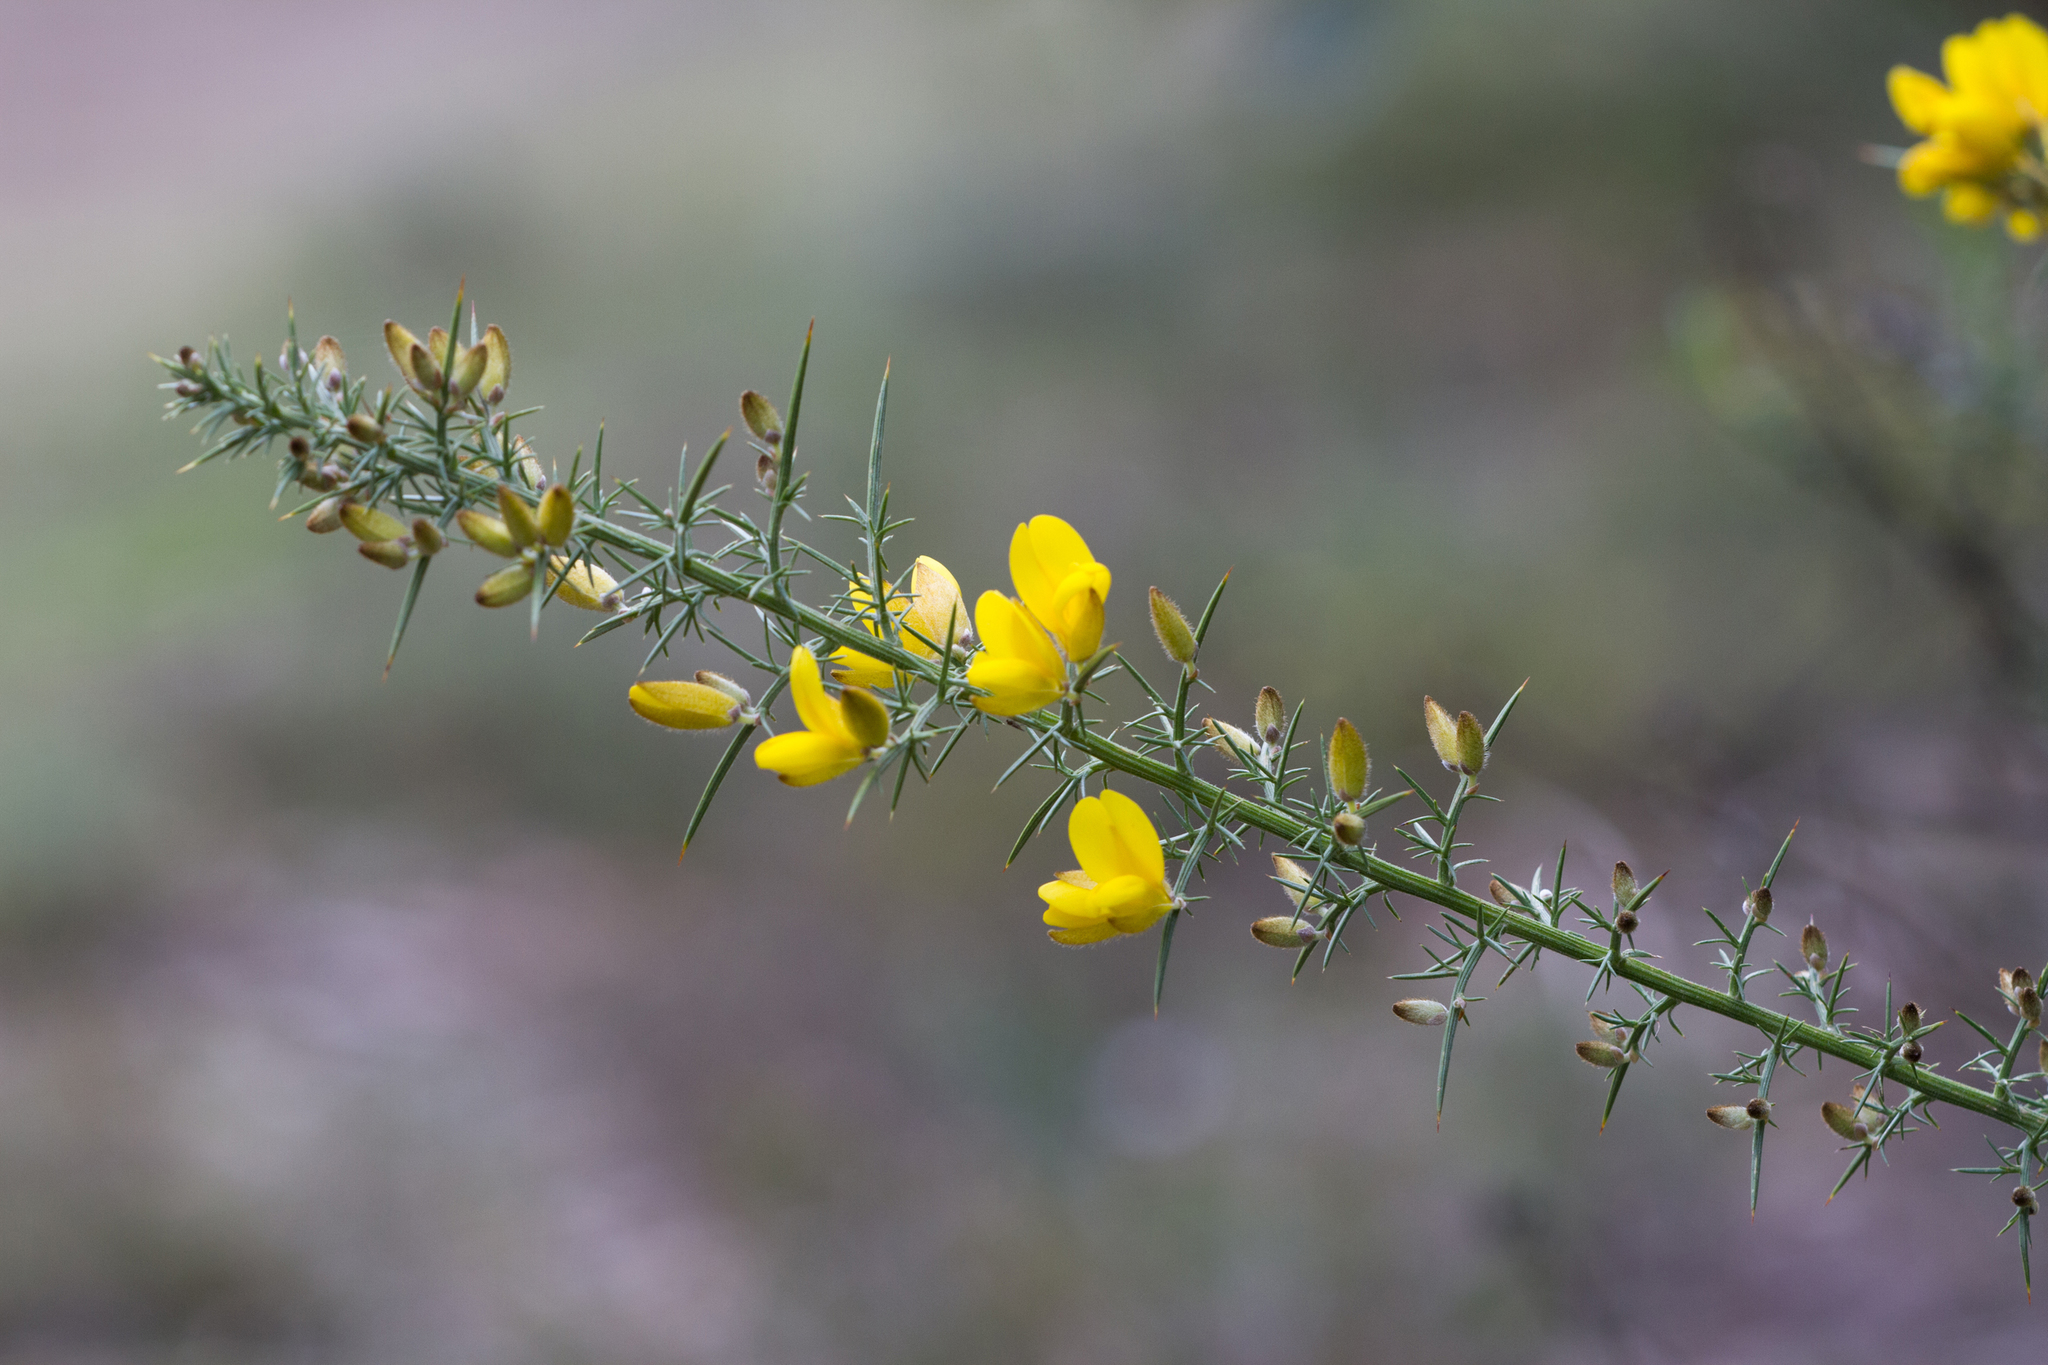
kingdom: Plantae
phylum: Tracheophyta
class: Magnoliopsida
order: Fabales
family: Fabaceae
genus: Ulex
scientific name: Ulex europaeus
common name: Common gorse
